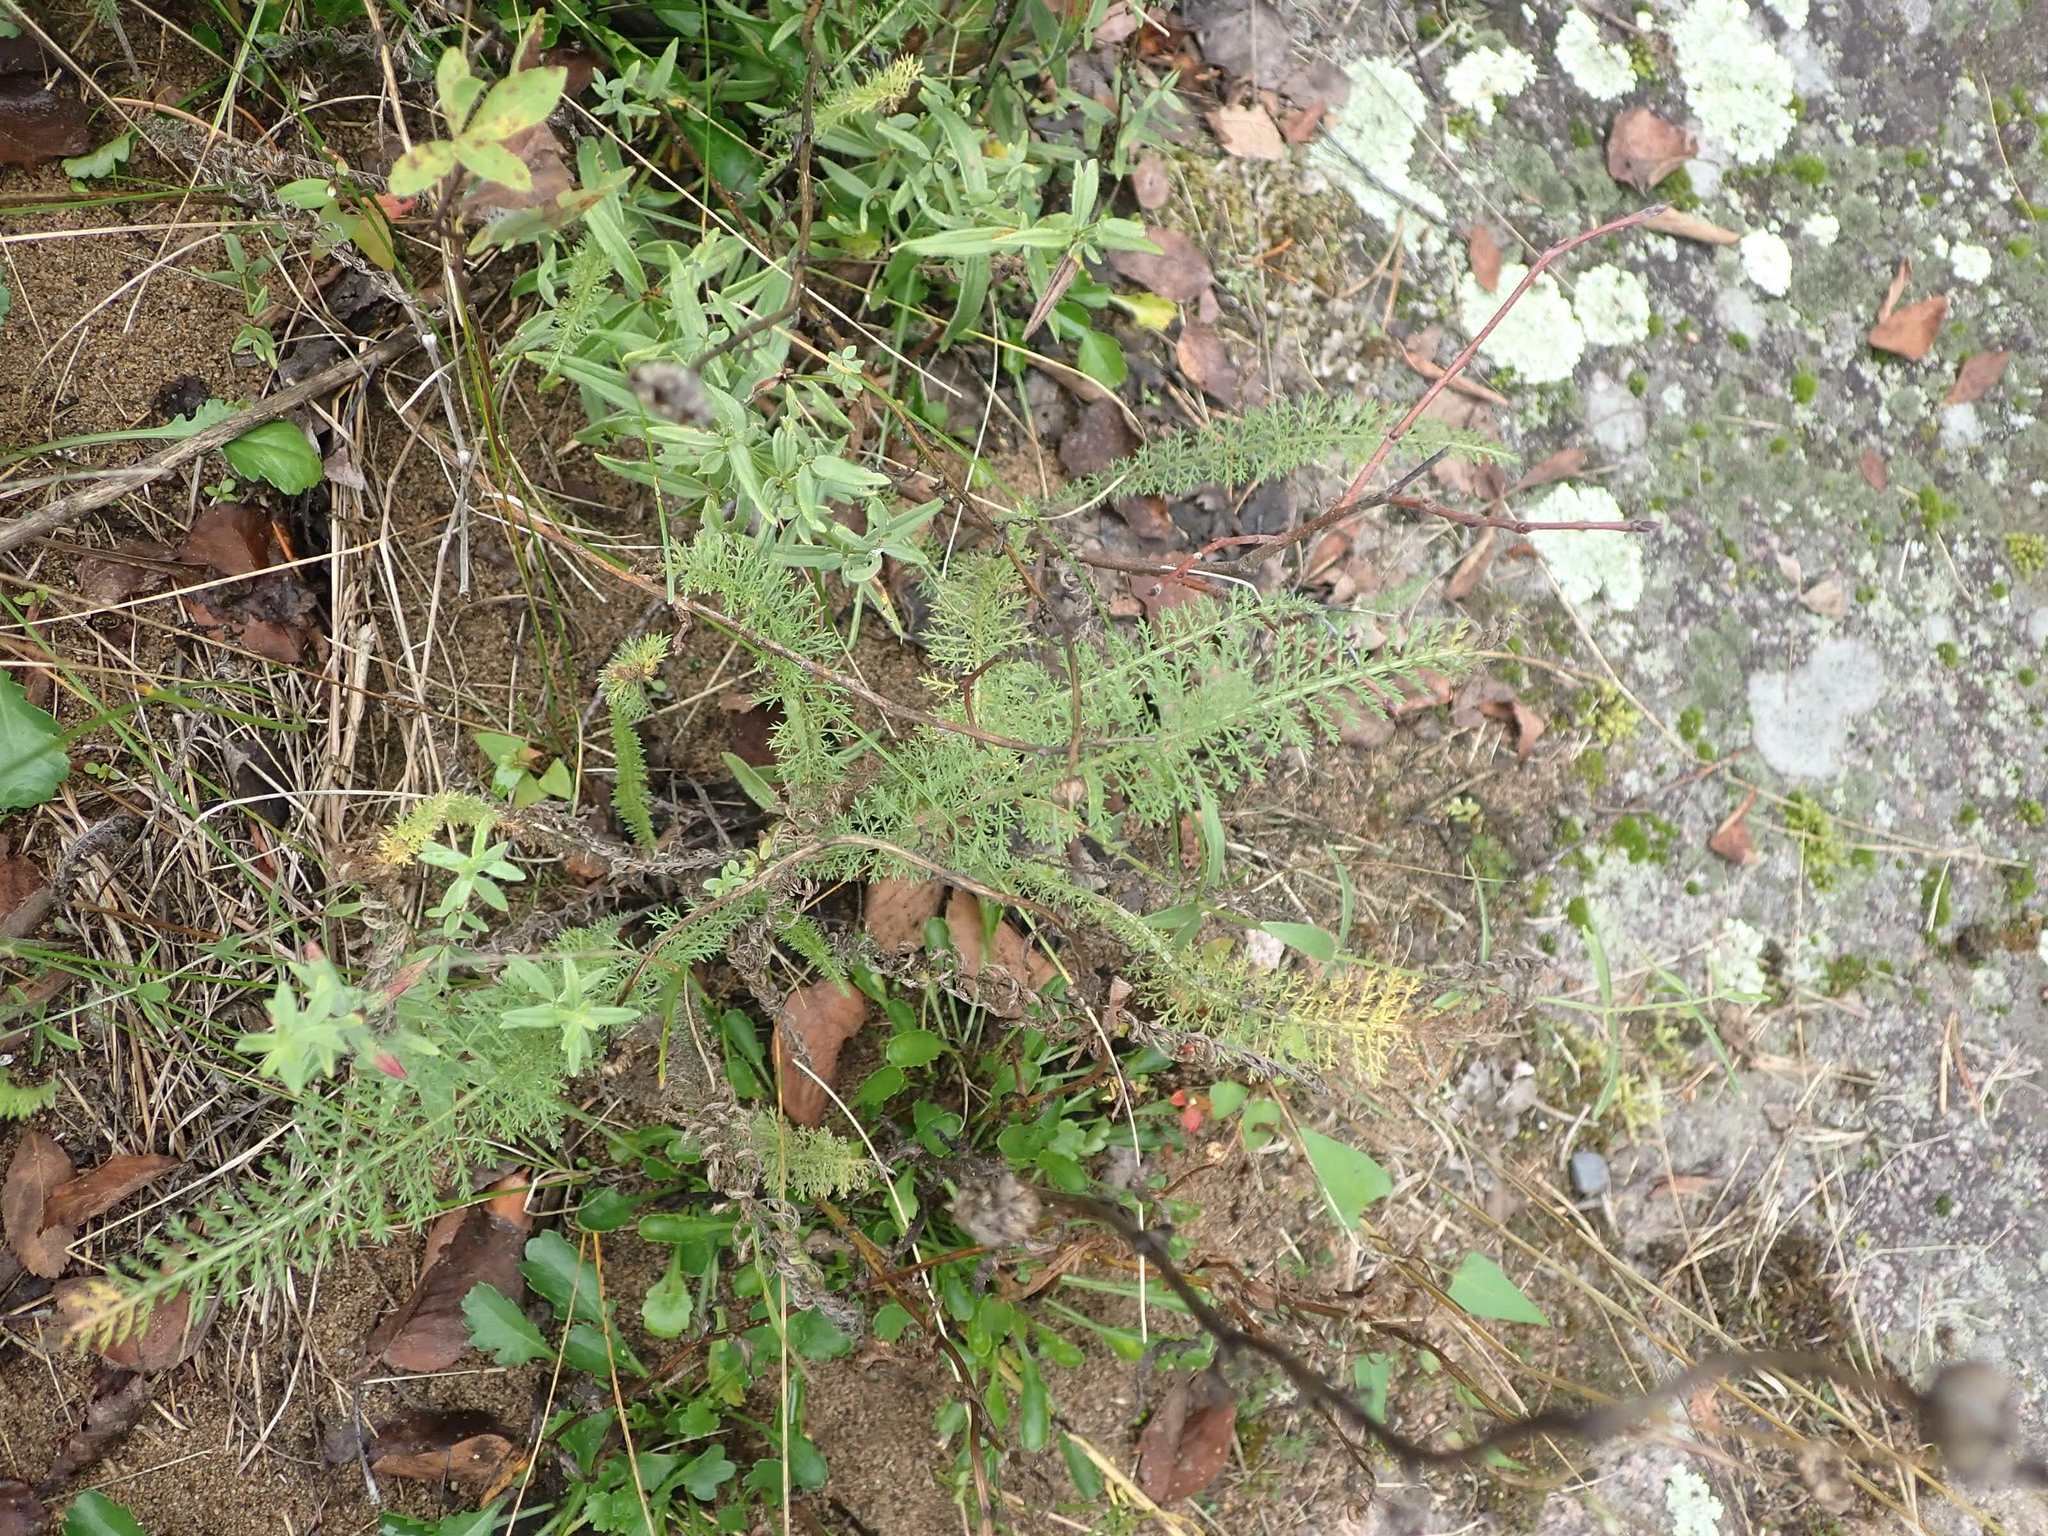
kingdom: Plantae
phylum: Tracheophyta
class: Magnoliopsida
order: Asterales
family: Asteraceae
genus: Achillea
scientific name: Achillea millefolium
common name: Yarrow
